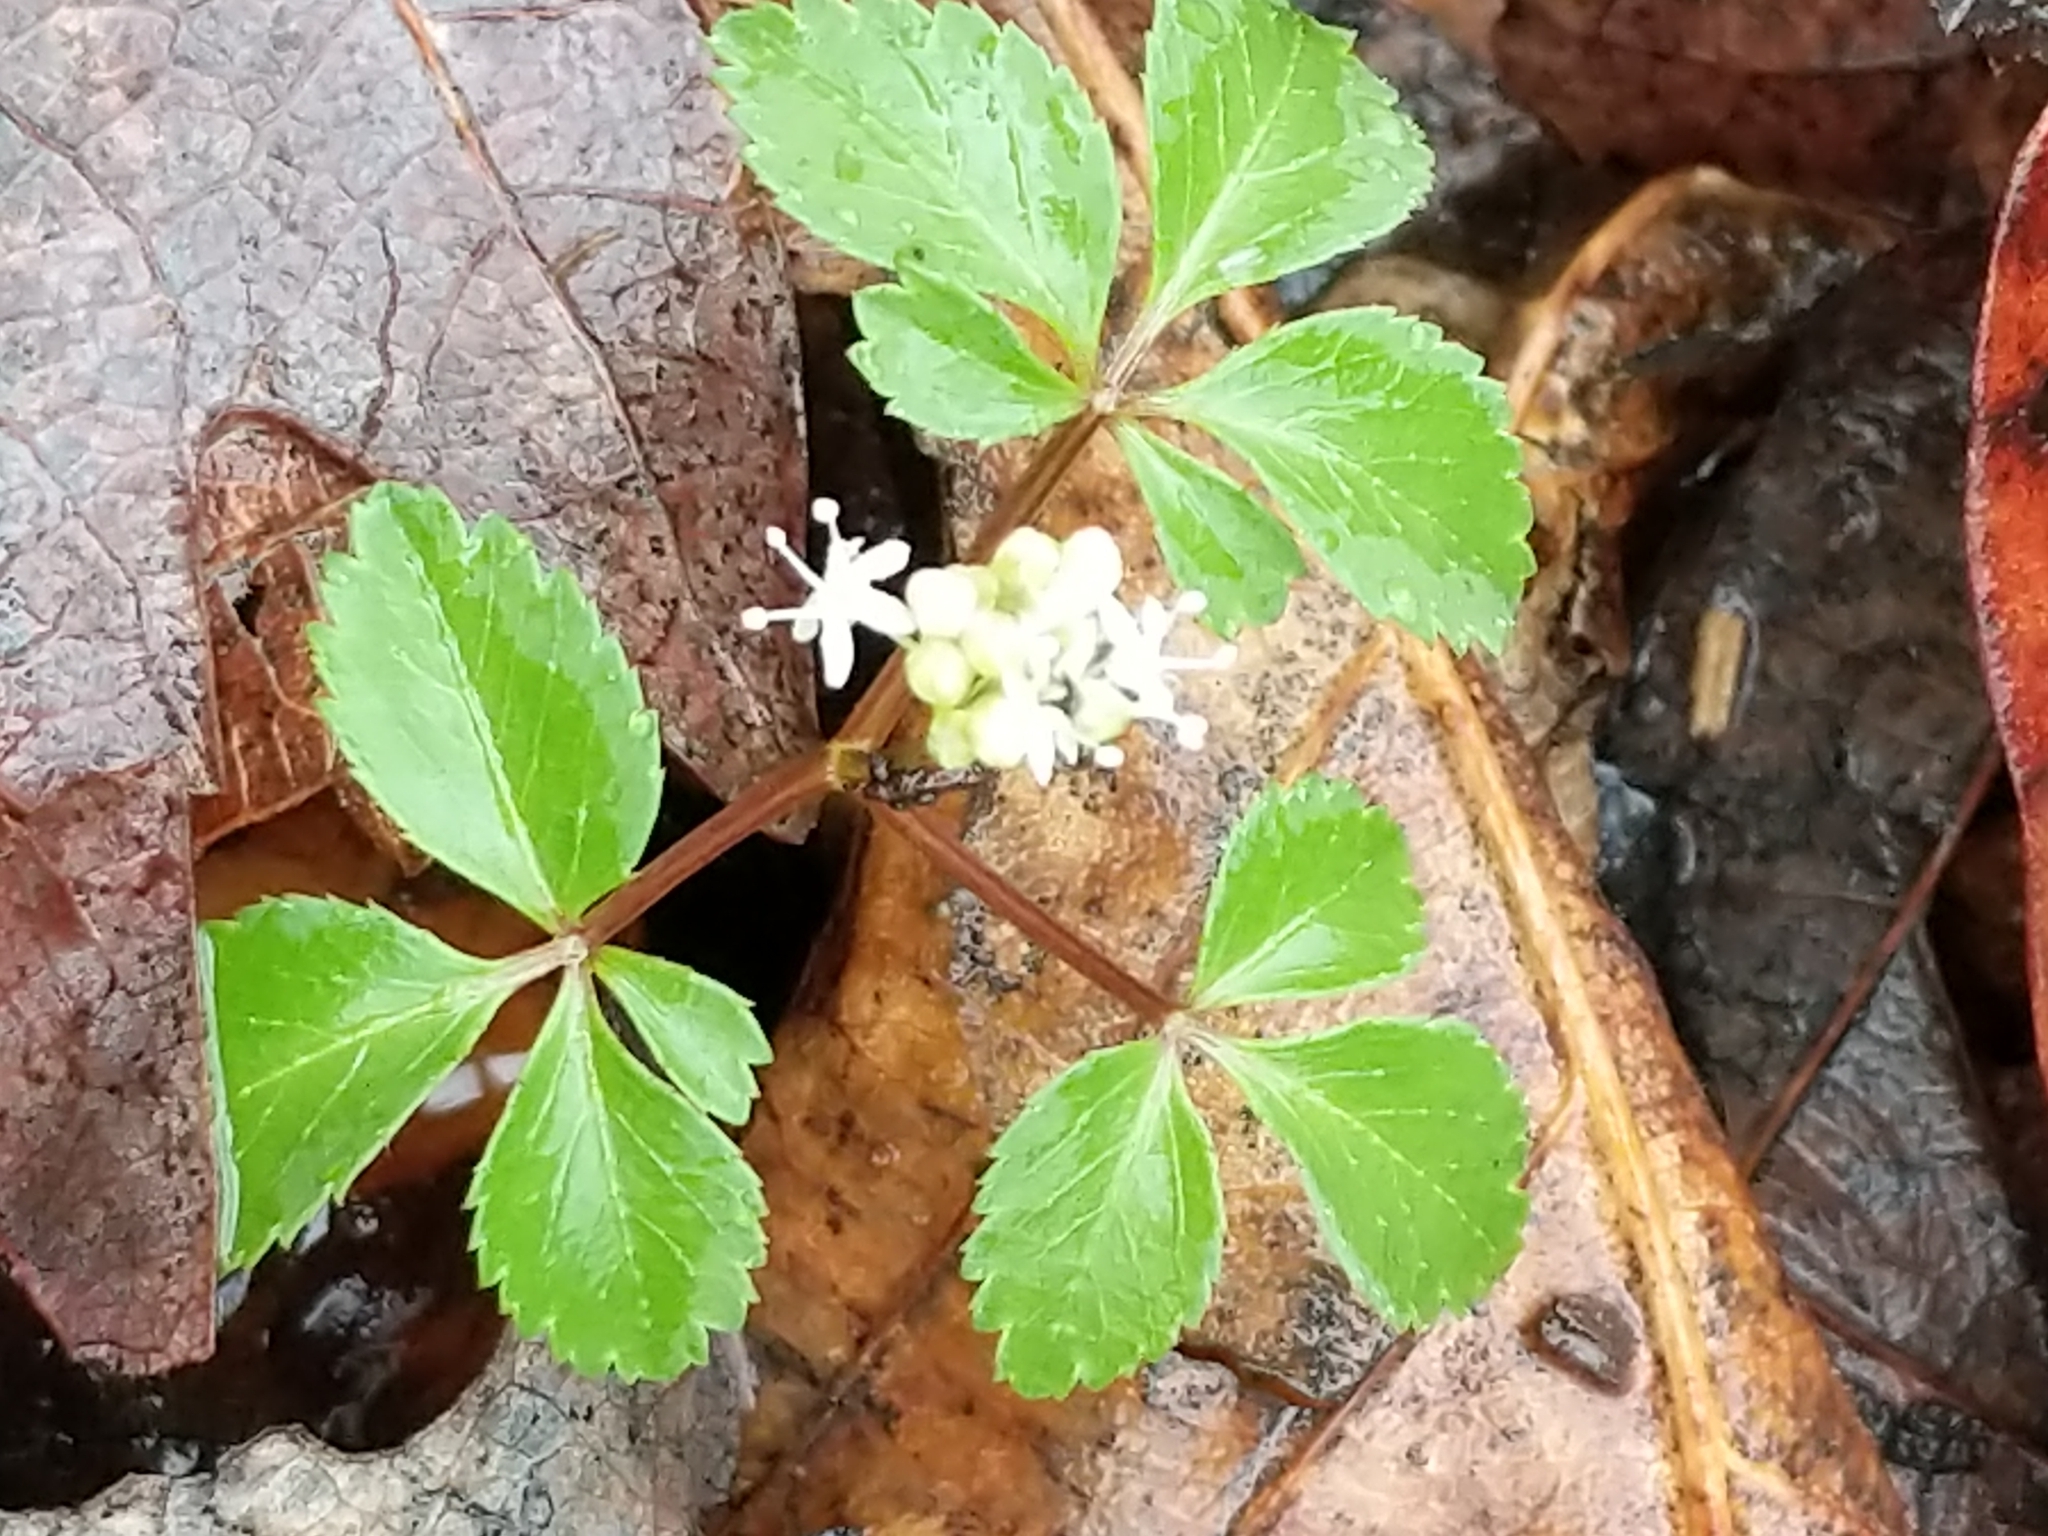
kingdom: Plantae
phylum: Tracheophyta
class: Magnoliopsida
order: Apiales
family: Araliaceae
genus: Panax
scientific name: Panax trifolius
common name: Dwarf ginseng
